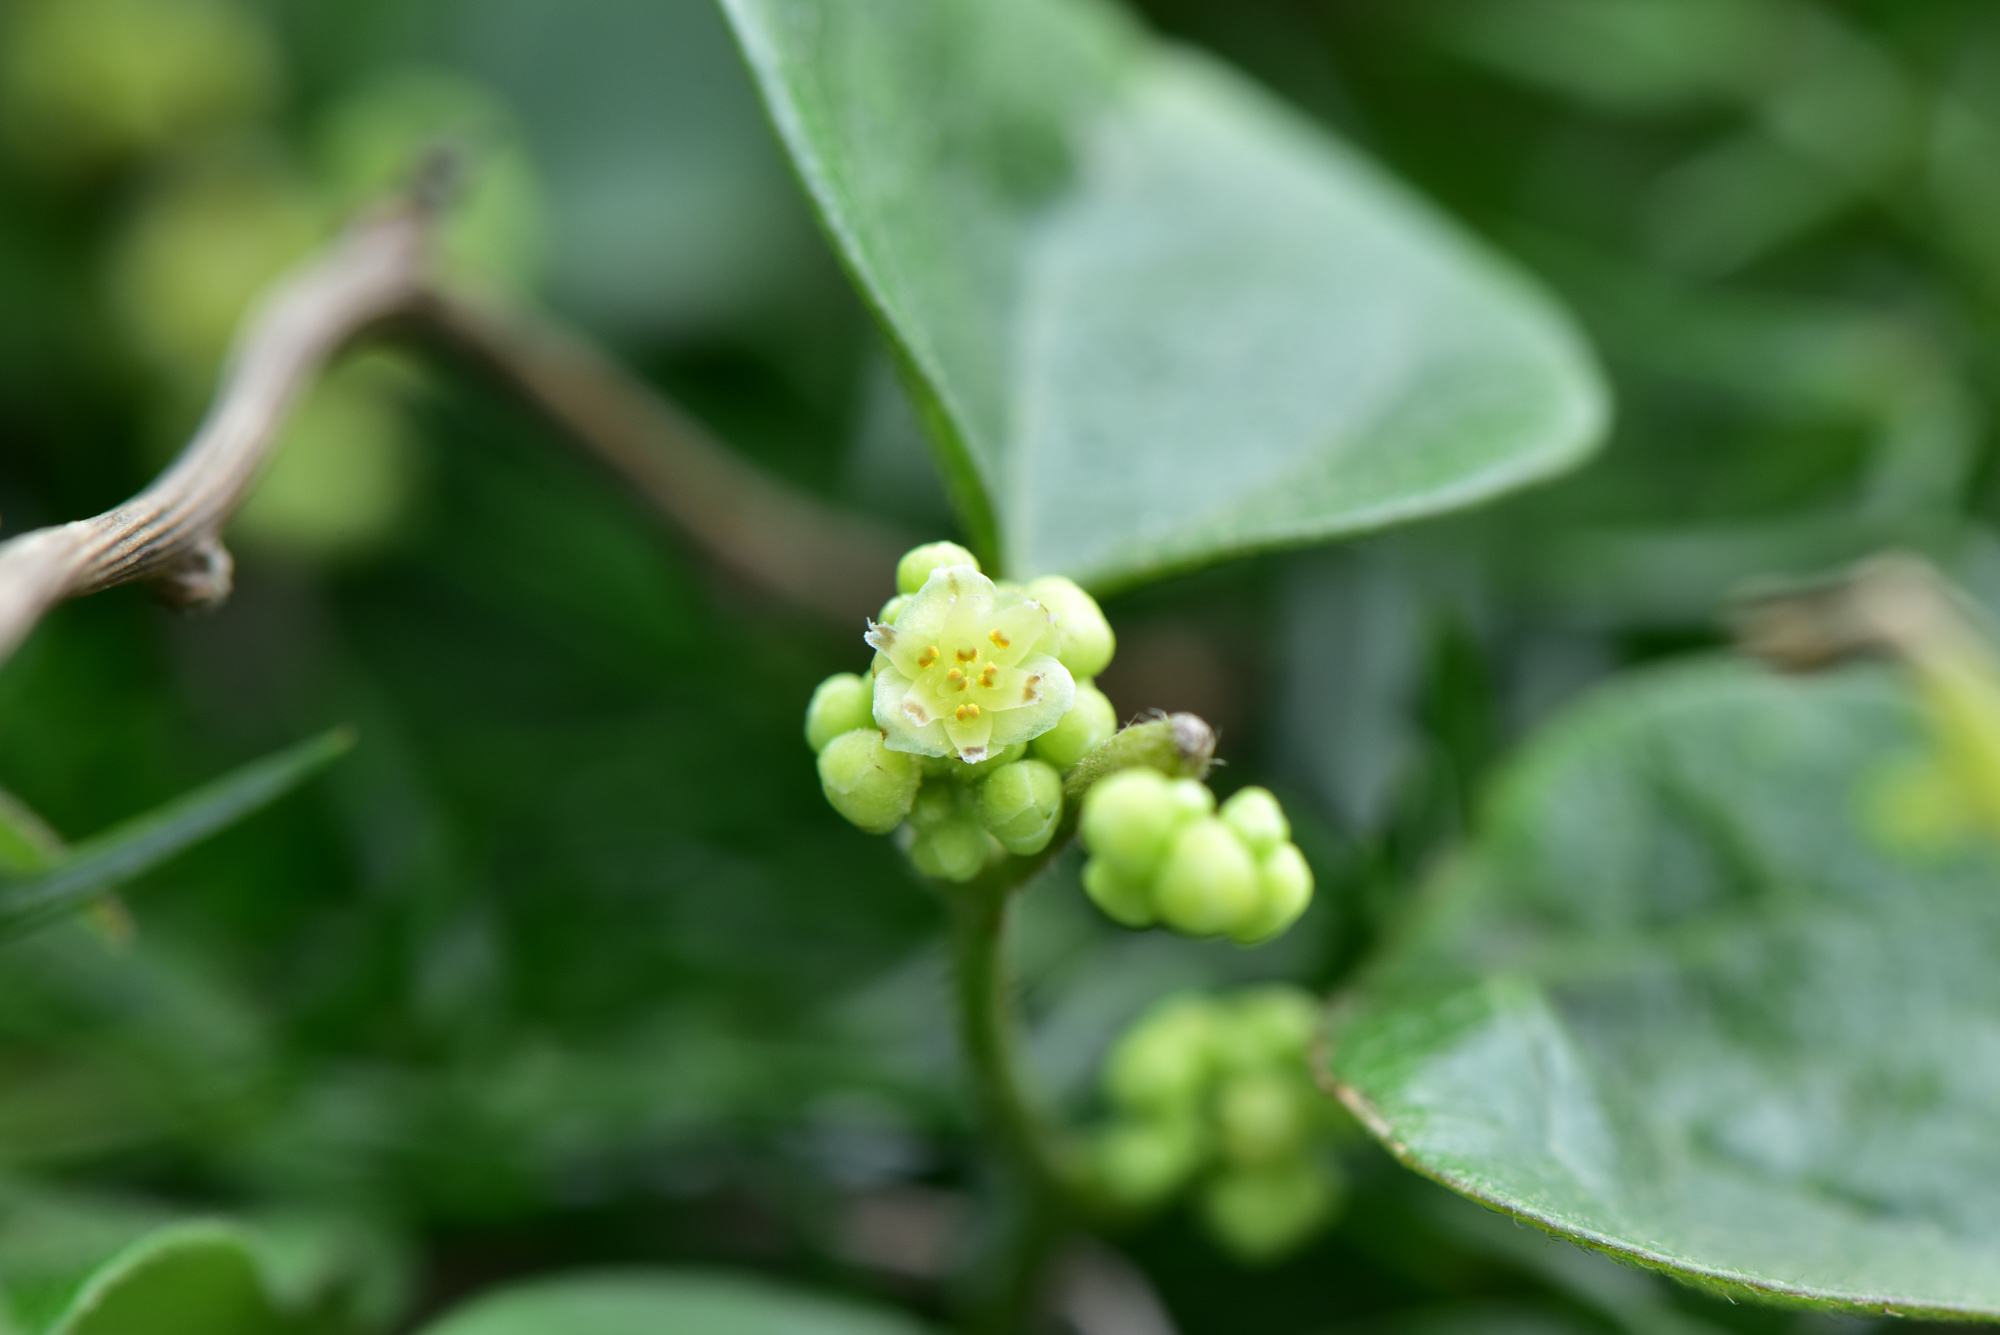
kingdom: Plantae
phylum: Tracheophyta
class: Magnoliopsida
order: Ranunculales
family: Menispermaceae
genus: Cocculus
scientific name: Cocculus orbiculatus
